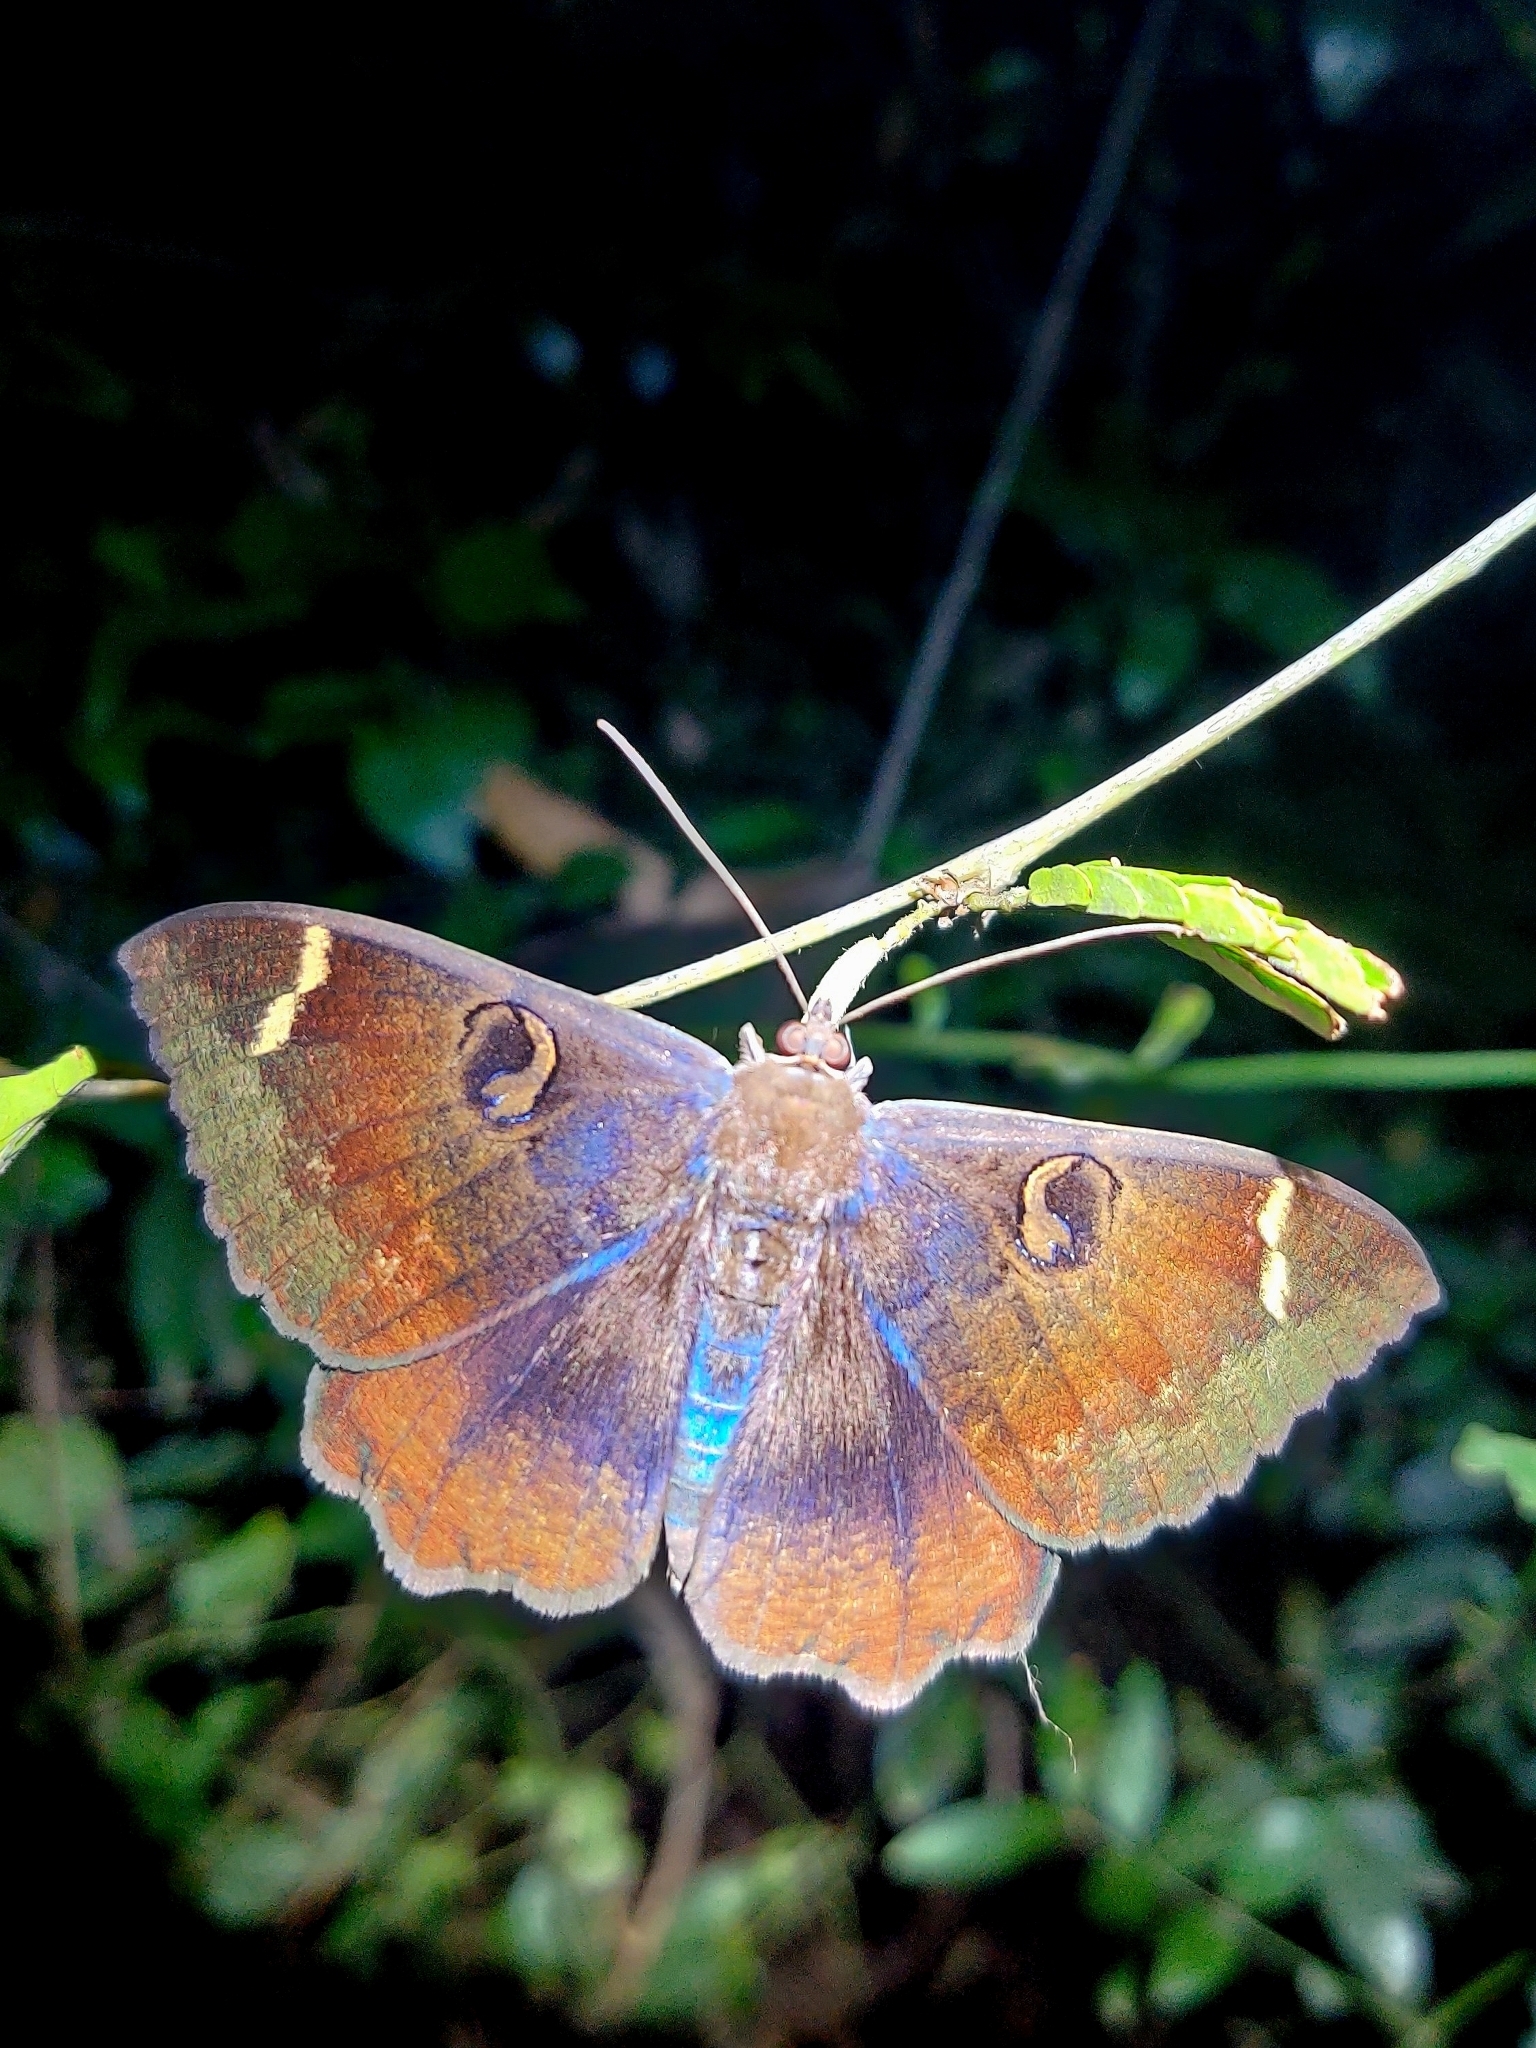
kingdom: Animalia
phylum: Arthropoda
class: Insecta
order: Lepidoptera
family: Erebidae
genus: Erebus
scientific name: Erebus hieroglyphica
